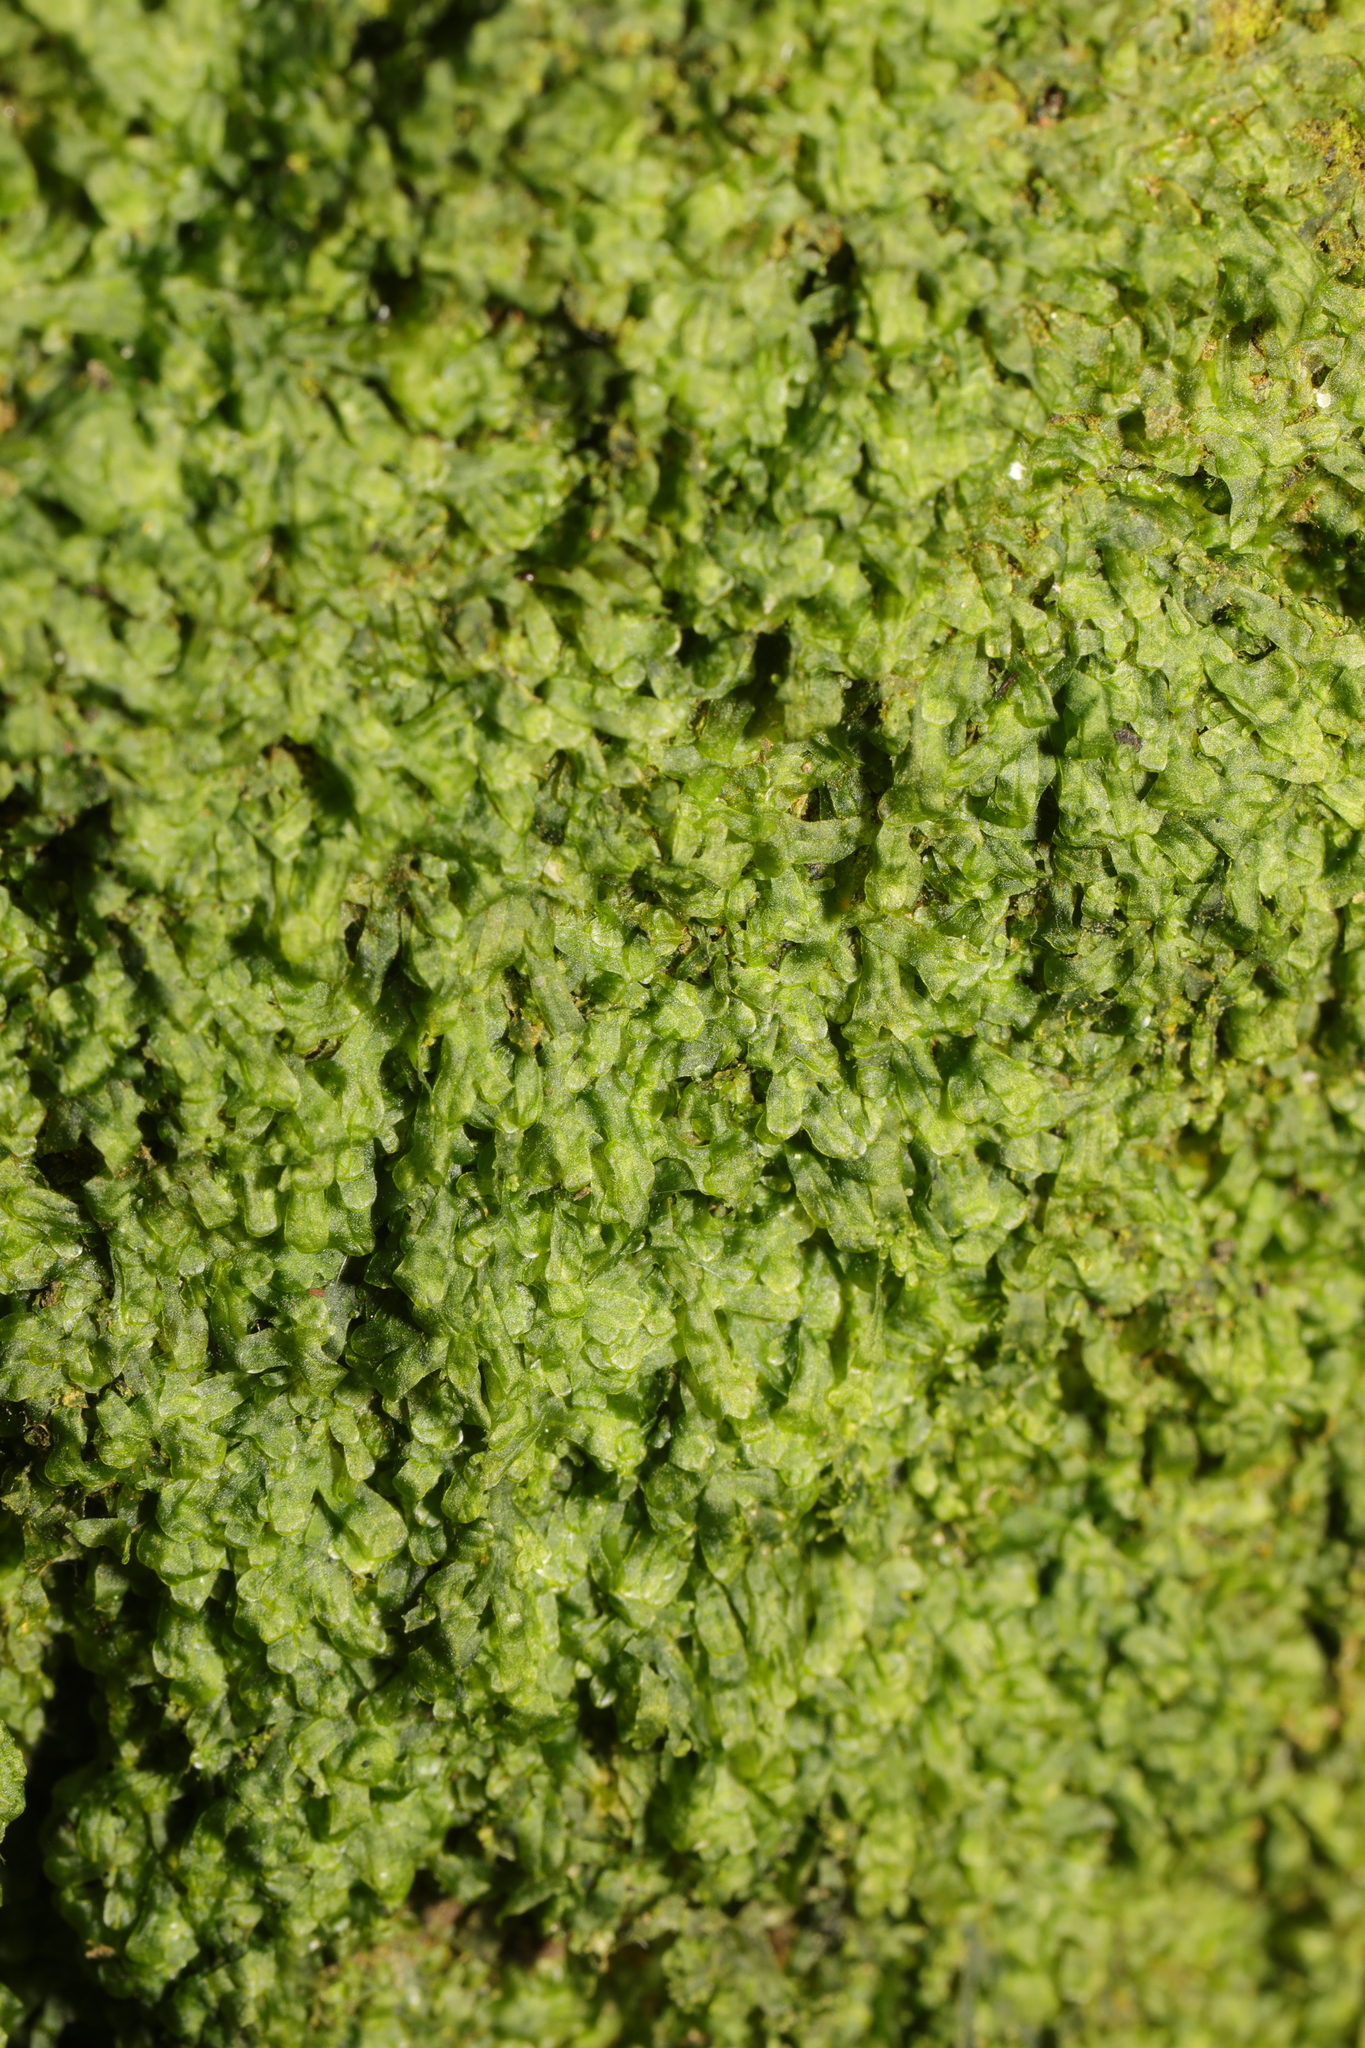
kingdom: Plantae
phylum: Marchantiophyta
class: Jungermanniopsida
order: Metzgeriales
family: Metzgeriaceae
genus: Metzgeria
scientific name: Metzgeria furcata
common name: Forked veilwort
